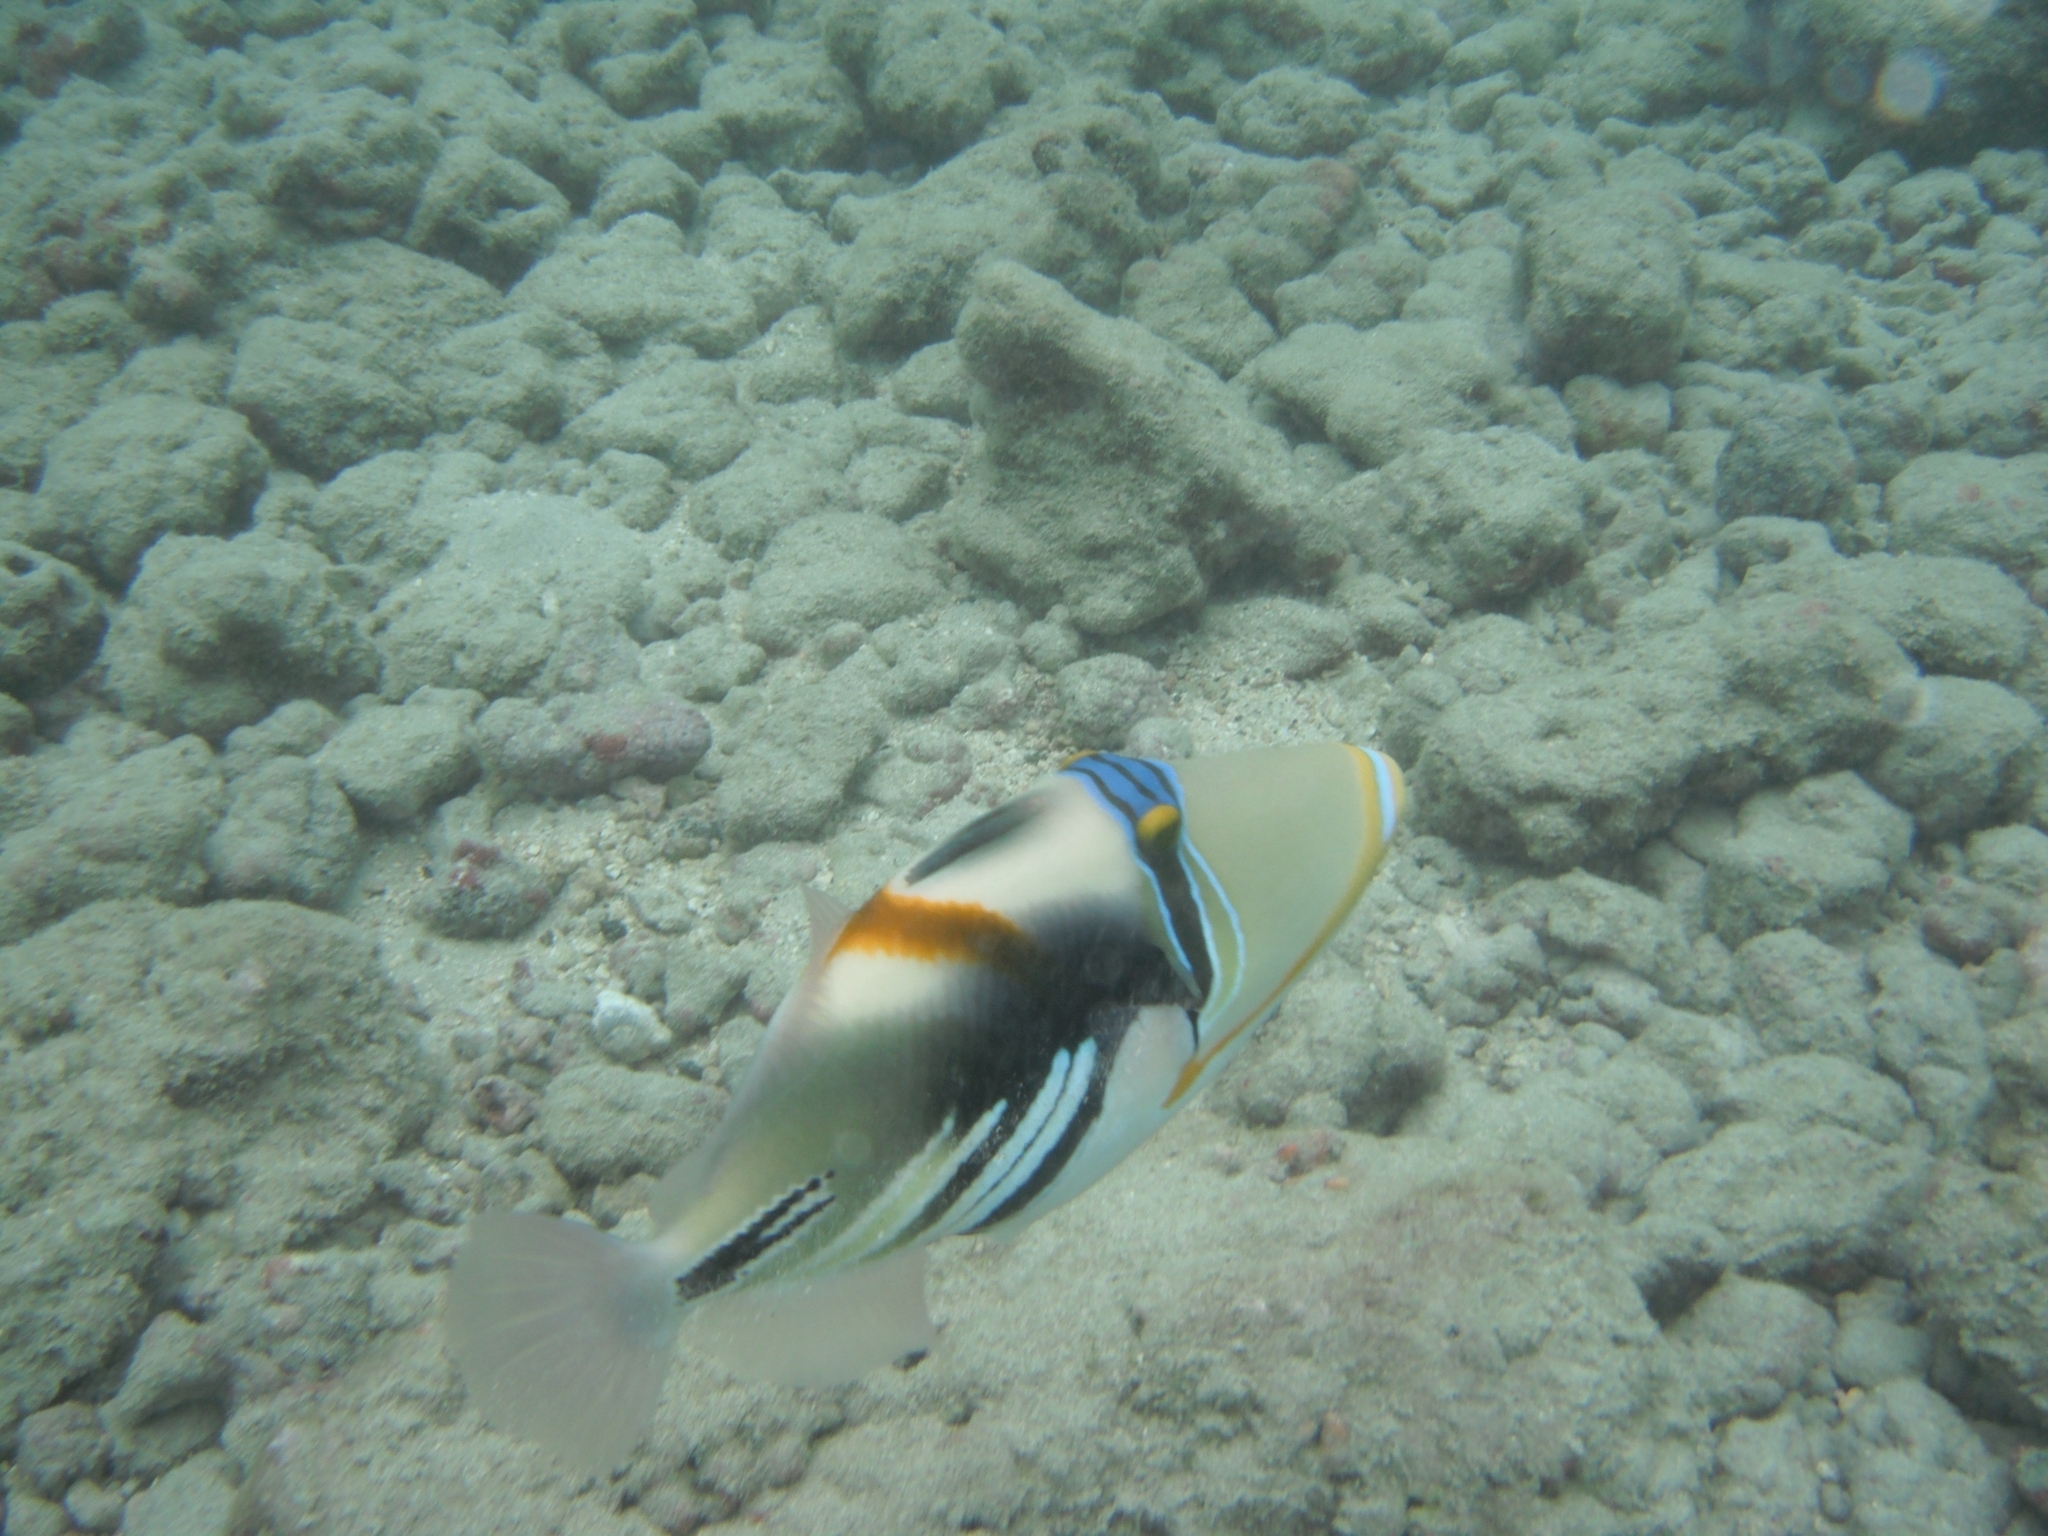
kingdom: Animalia
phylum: Chordata
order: Tetraodontiformes
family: Balistidae
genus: Rhinecanthus
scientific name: Rhinecanthus aculeatus
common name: White-banded triggerfish
